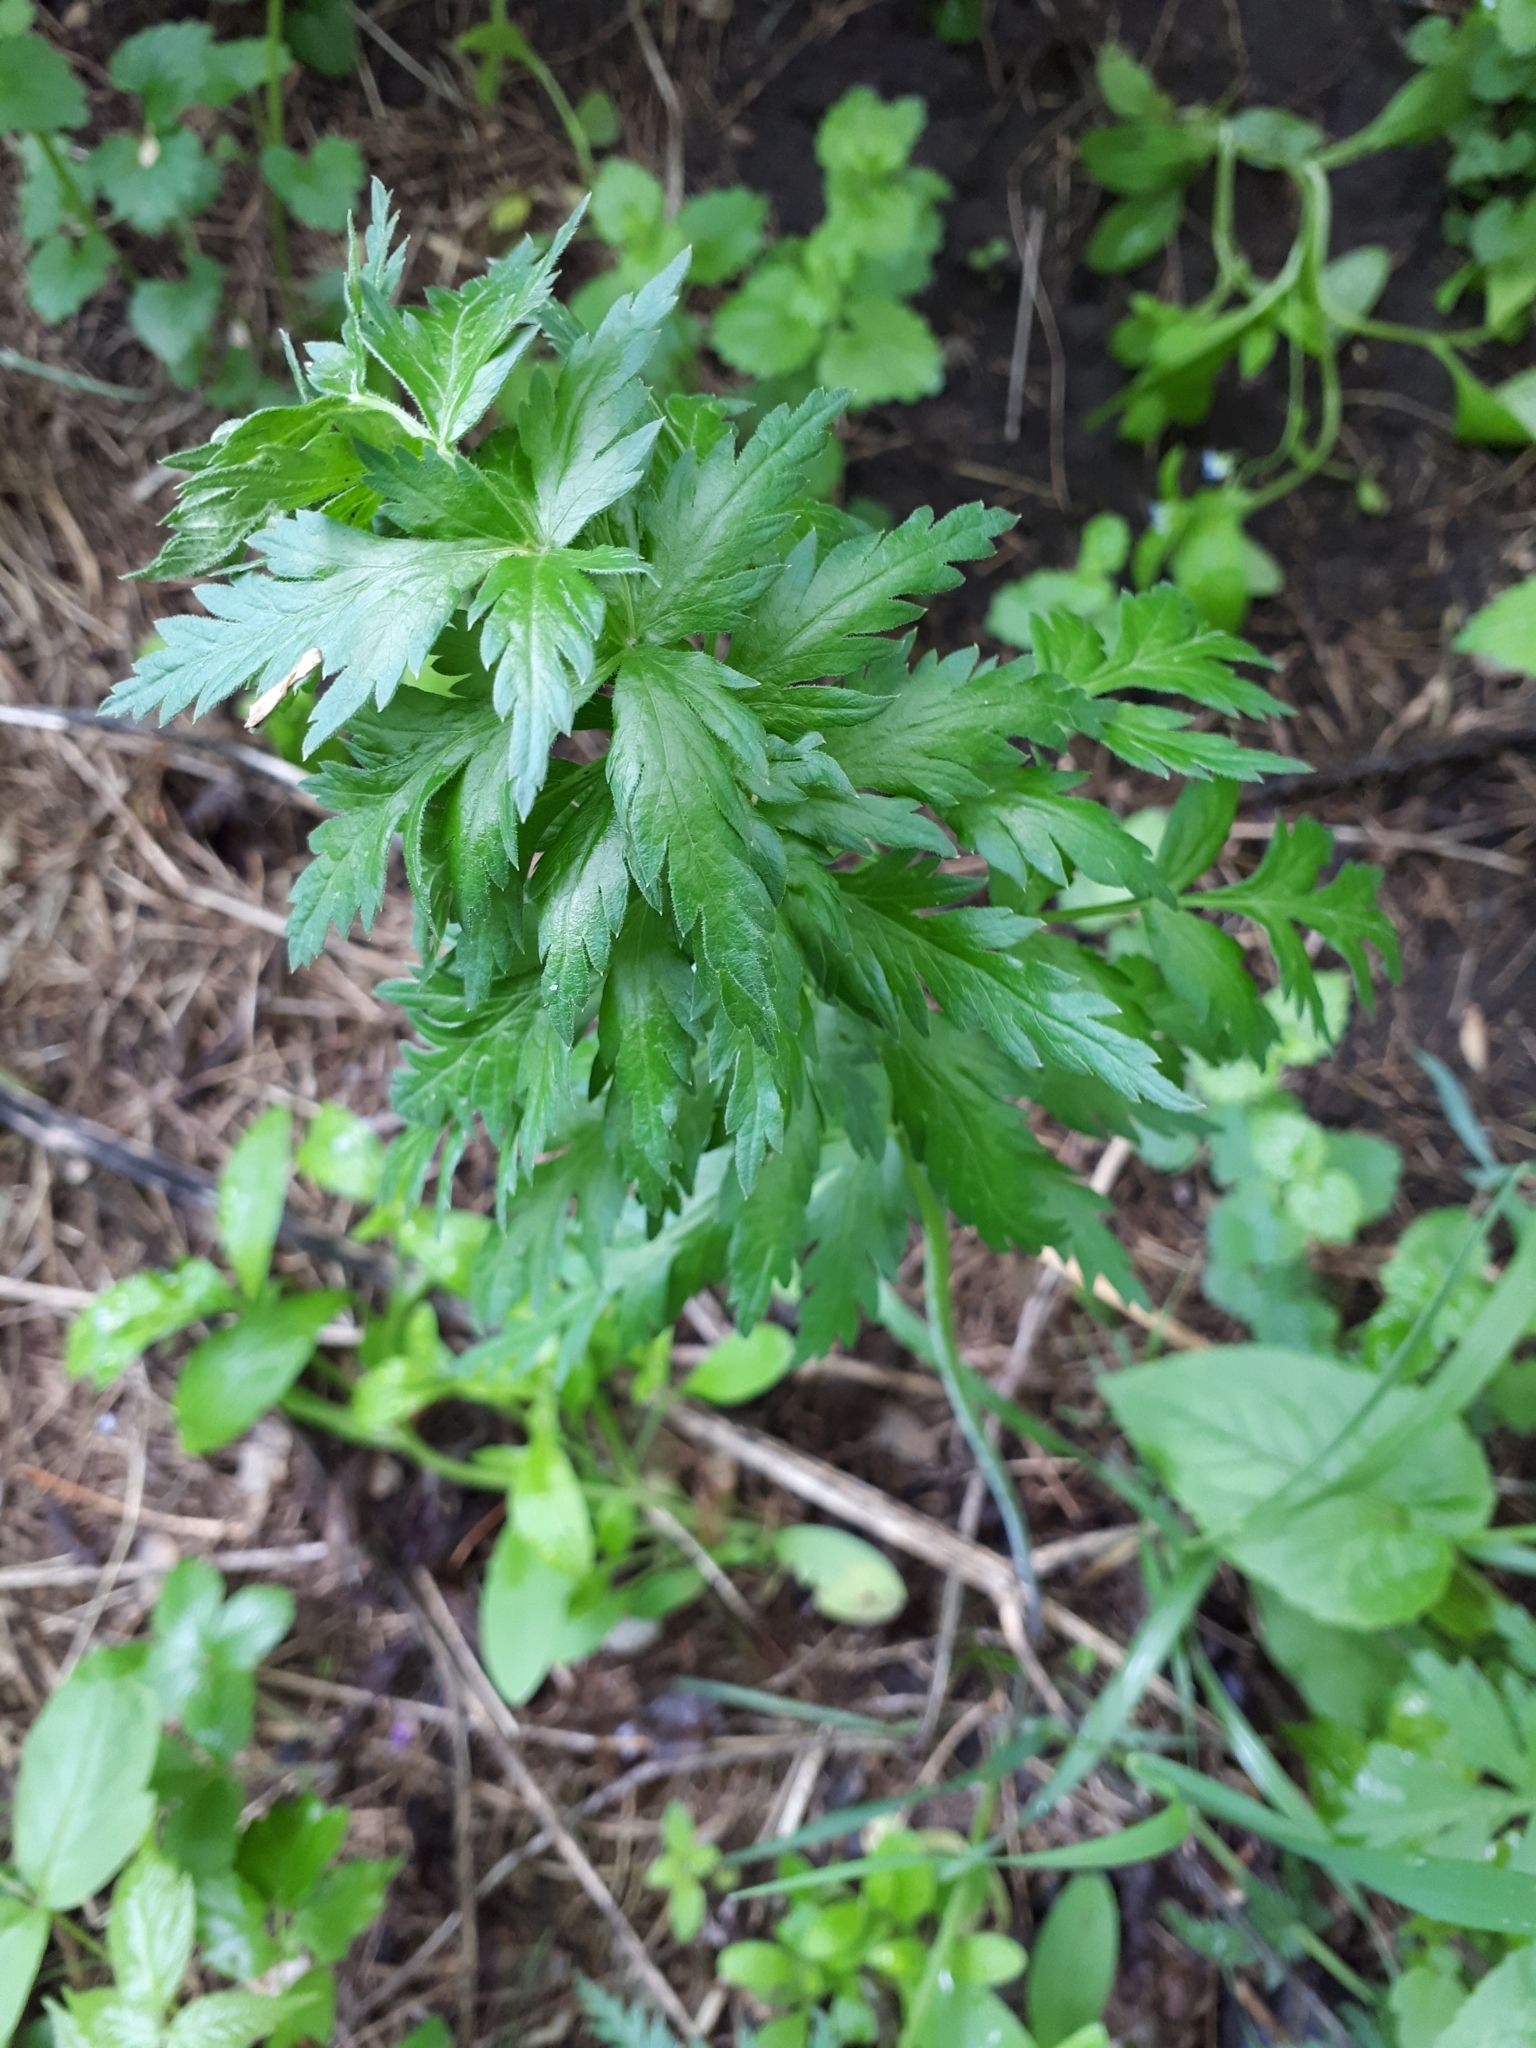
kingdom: Plantae
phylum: Tracheophyta
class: Magnoliopsida
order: Apiales
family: Apiaceae
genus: Seseli
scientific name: Seseli libanotis
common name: Mooncarrot
